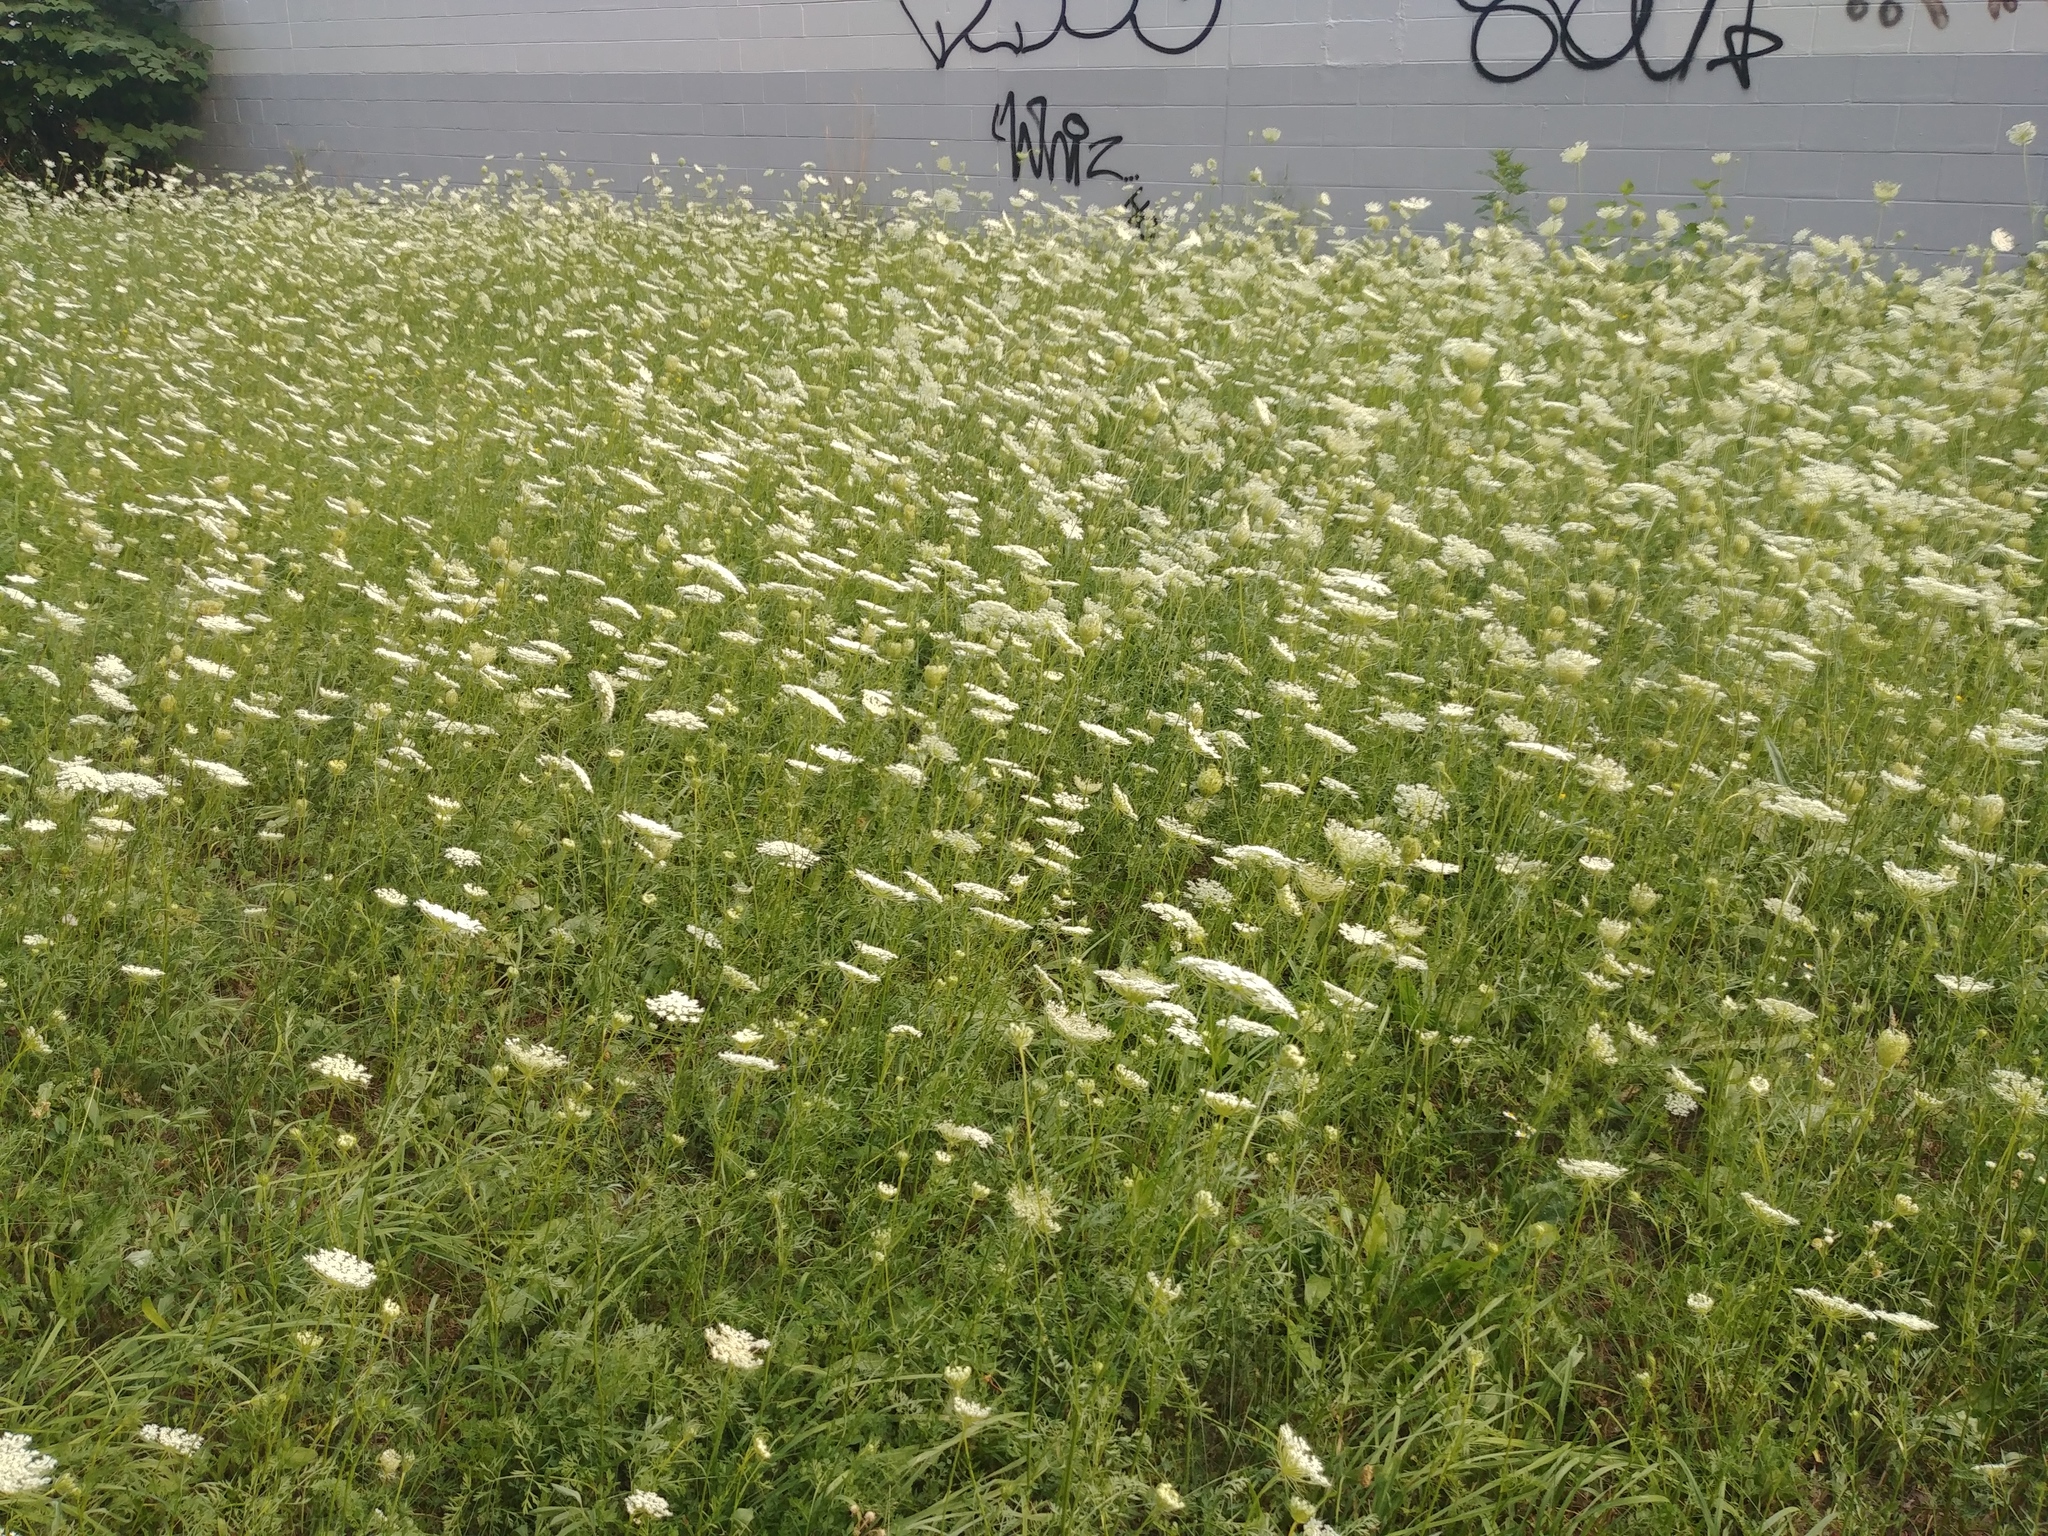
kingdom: Plantae
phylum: Tracheophyta
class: Magnoliopsida
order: Apiales
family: Apiaceae
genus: Daucus
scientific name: Daucus carota
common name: Wild carrot
